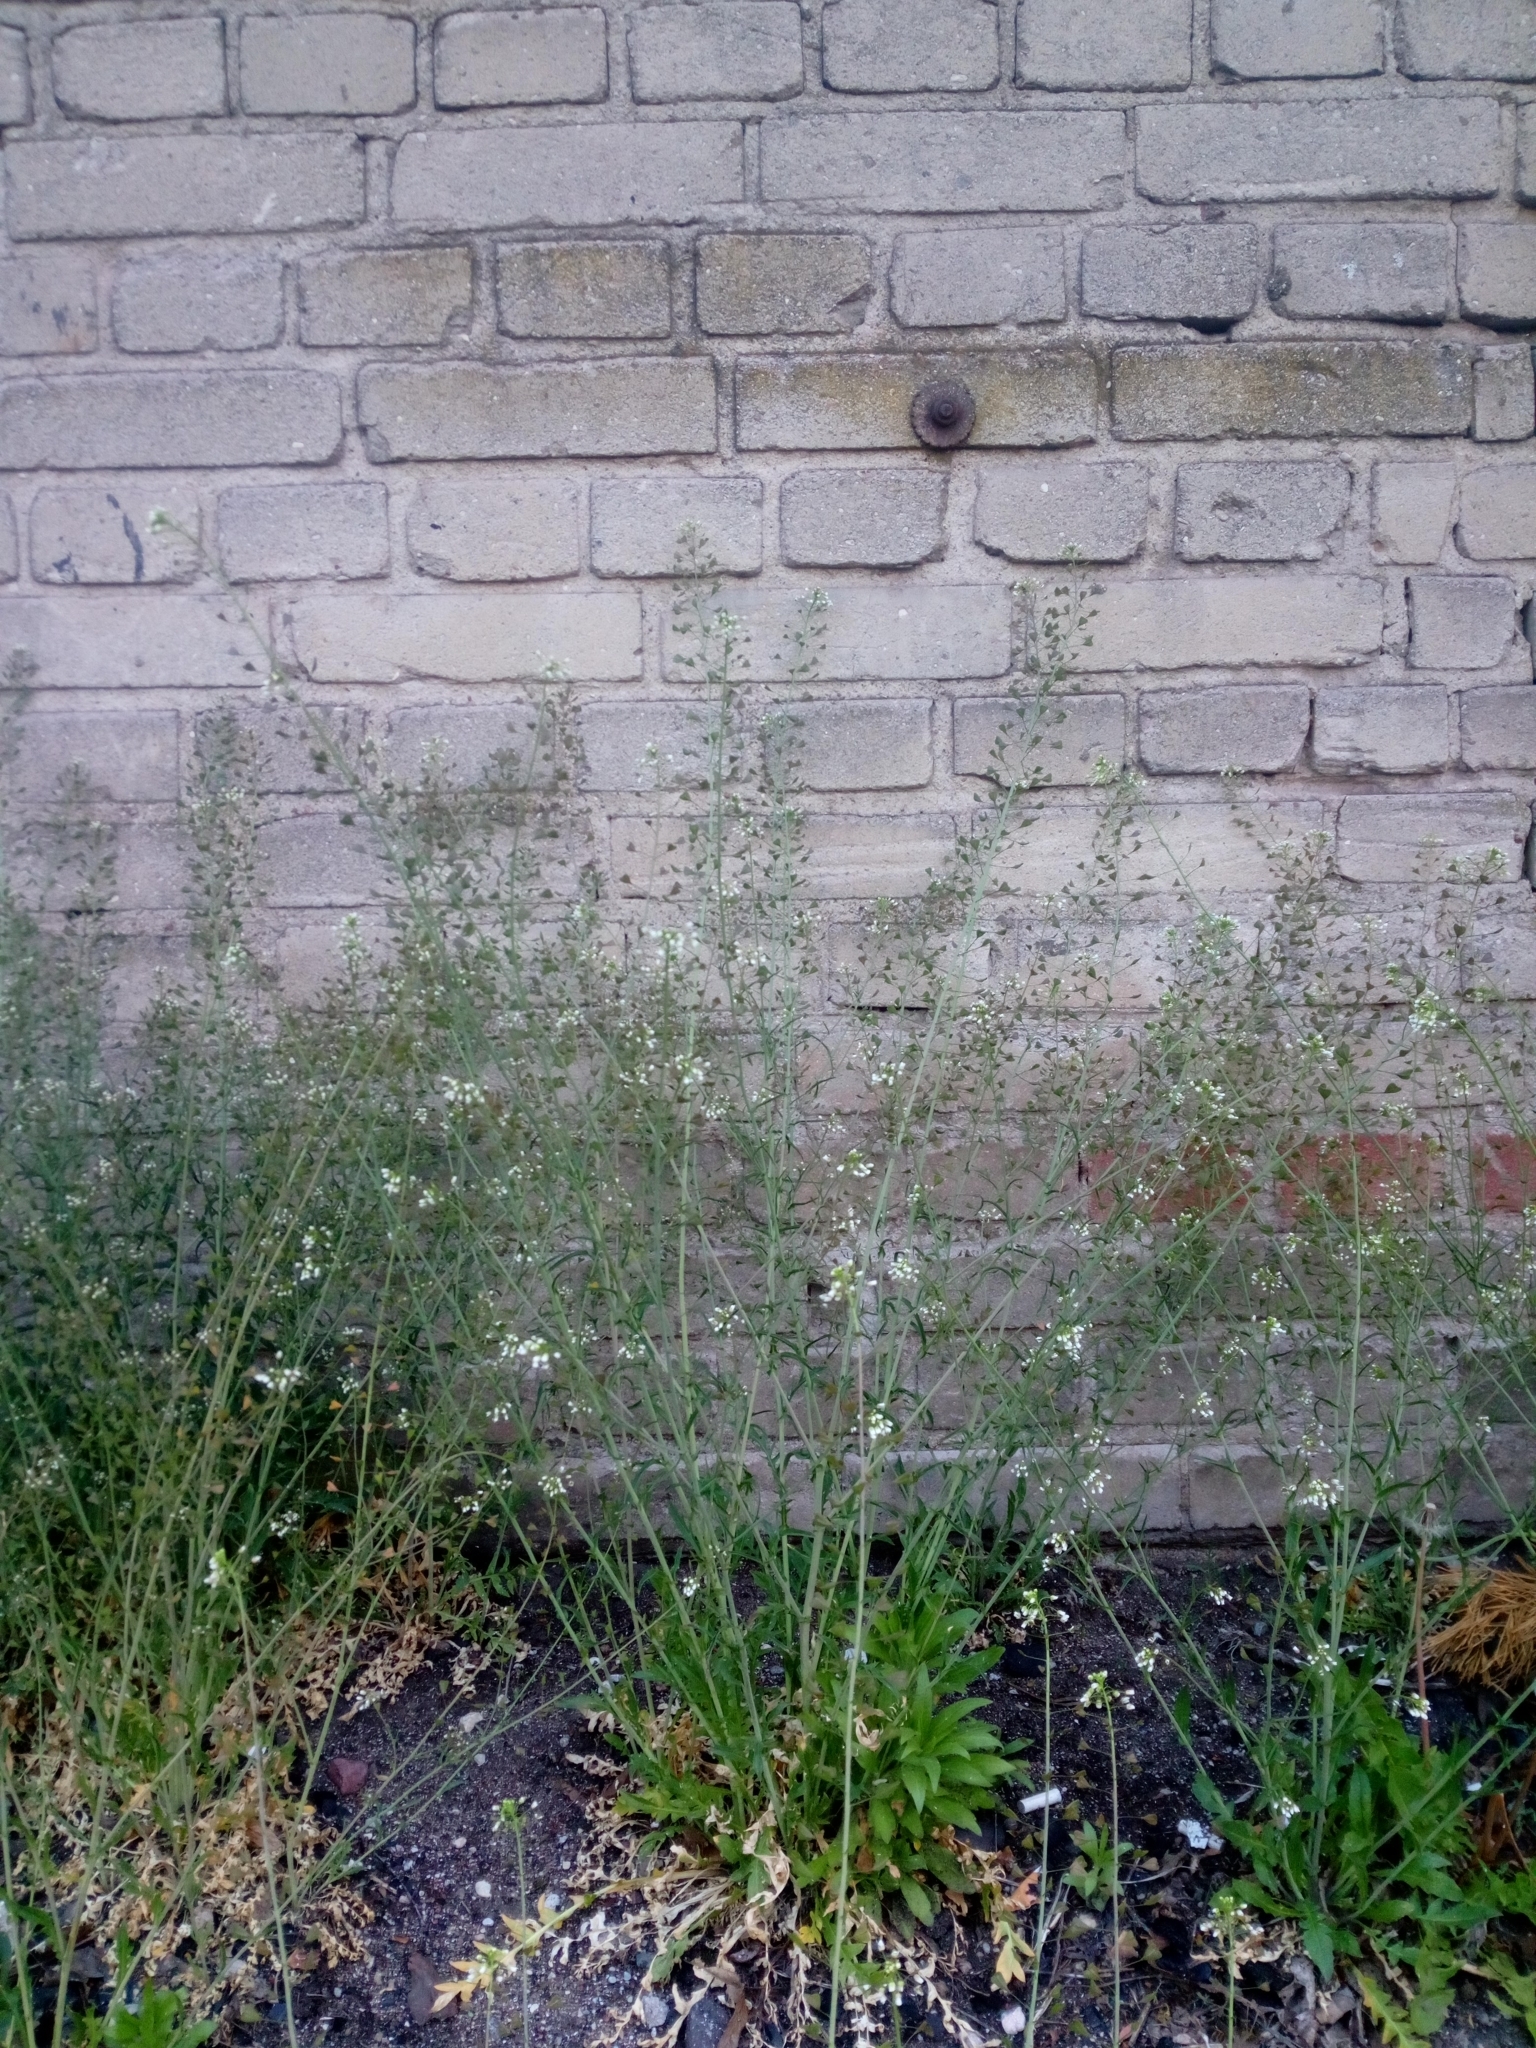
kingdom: Plantae
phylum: Tracheophyta
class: Magnoliopsida
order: Brassicales
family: Brassicaceae
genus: Capsella
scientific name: Capsella bursa-pastoris
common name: Shepherd's purse
